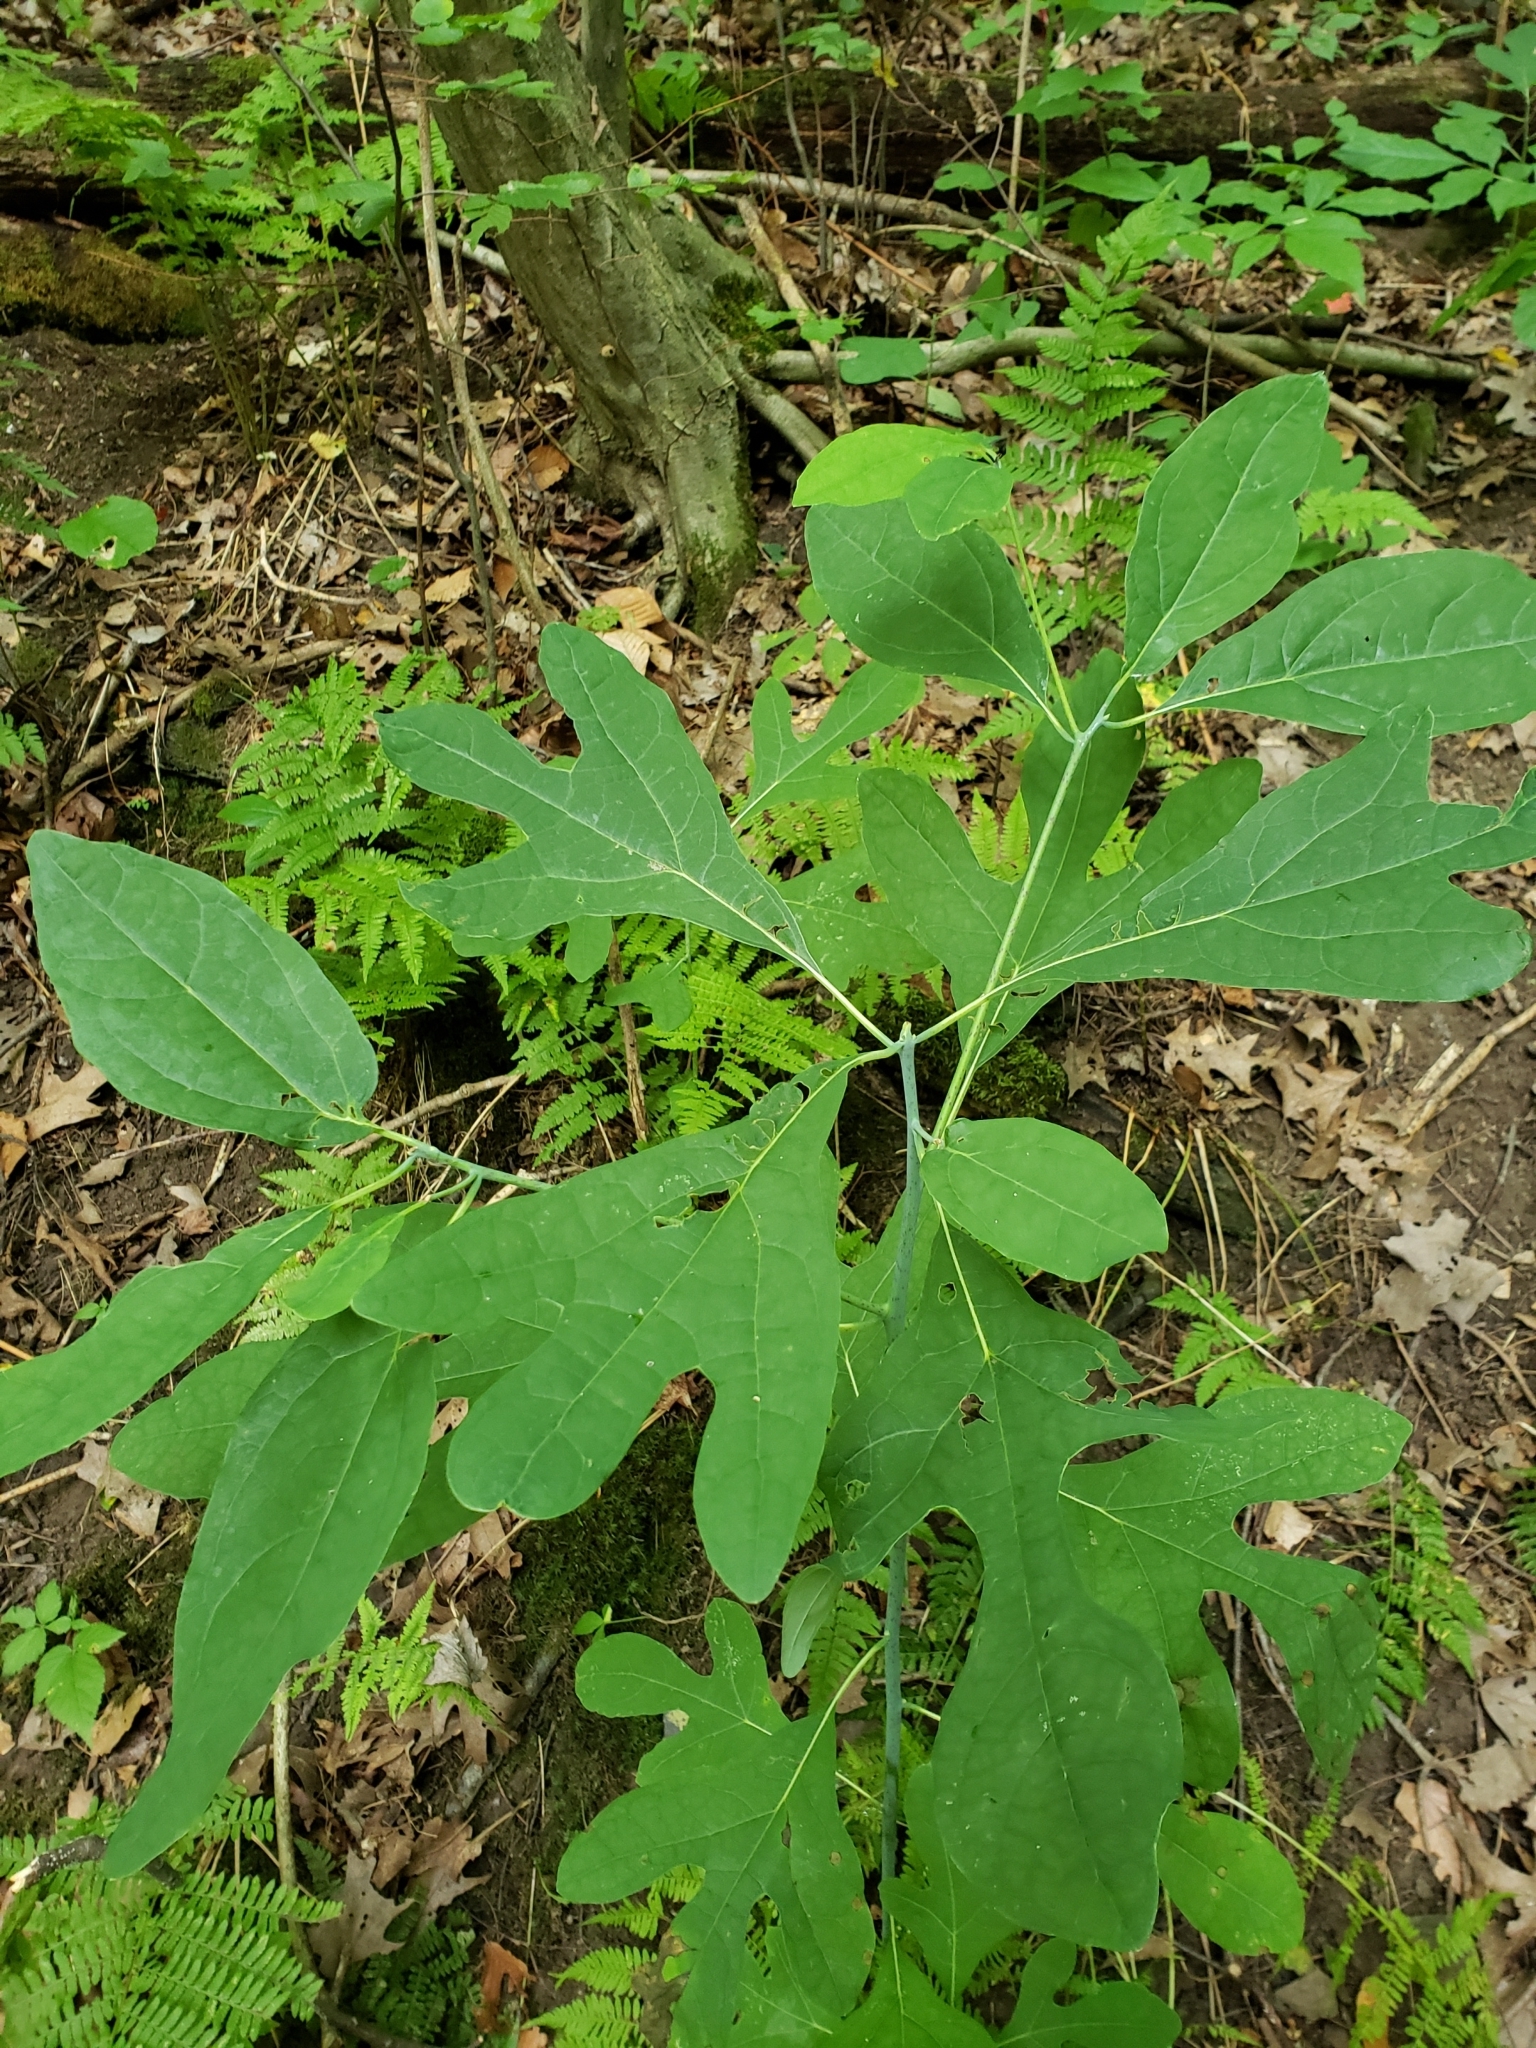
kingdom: Plantae
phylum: Tracheophyta
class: Magnoliopsida
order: Laurales
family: Lauraceae
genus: Sassafras
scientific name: Sassafras albidum
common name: Sassafras
